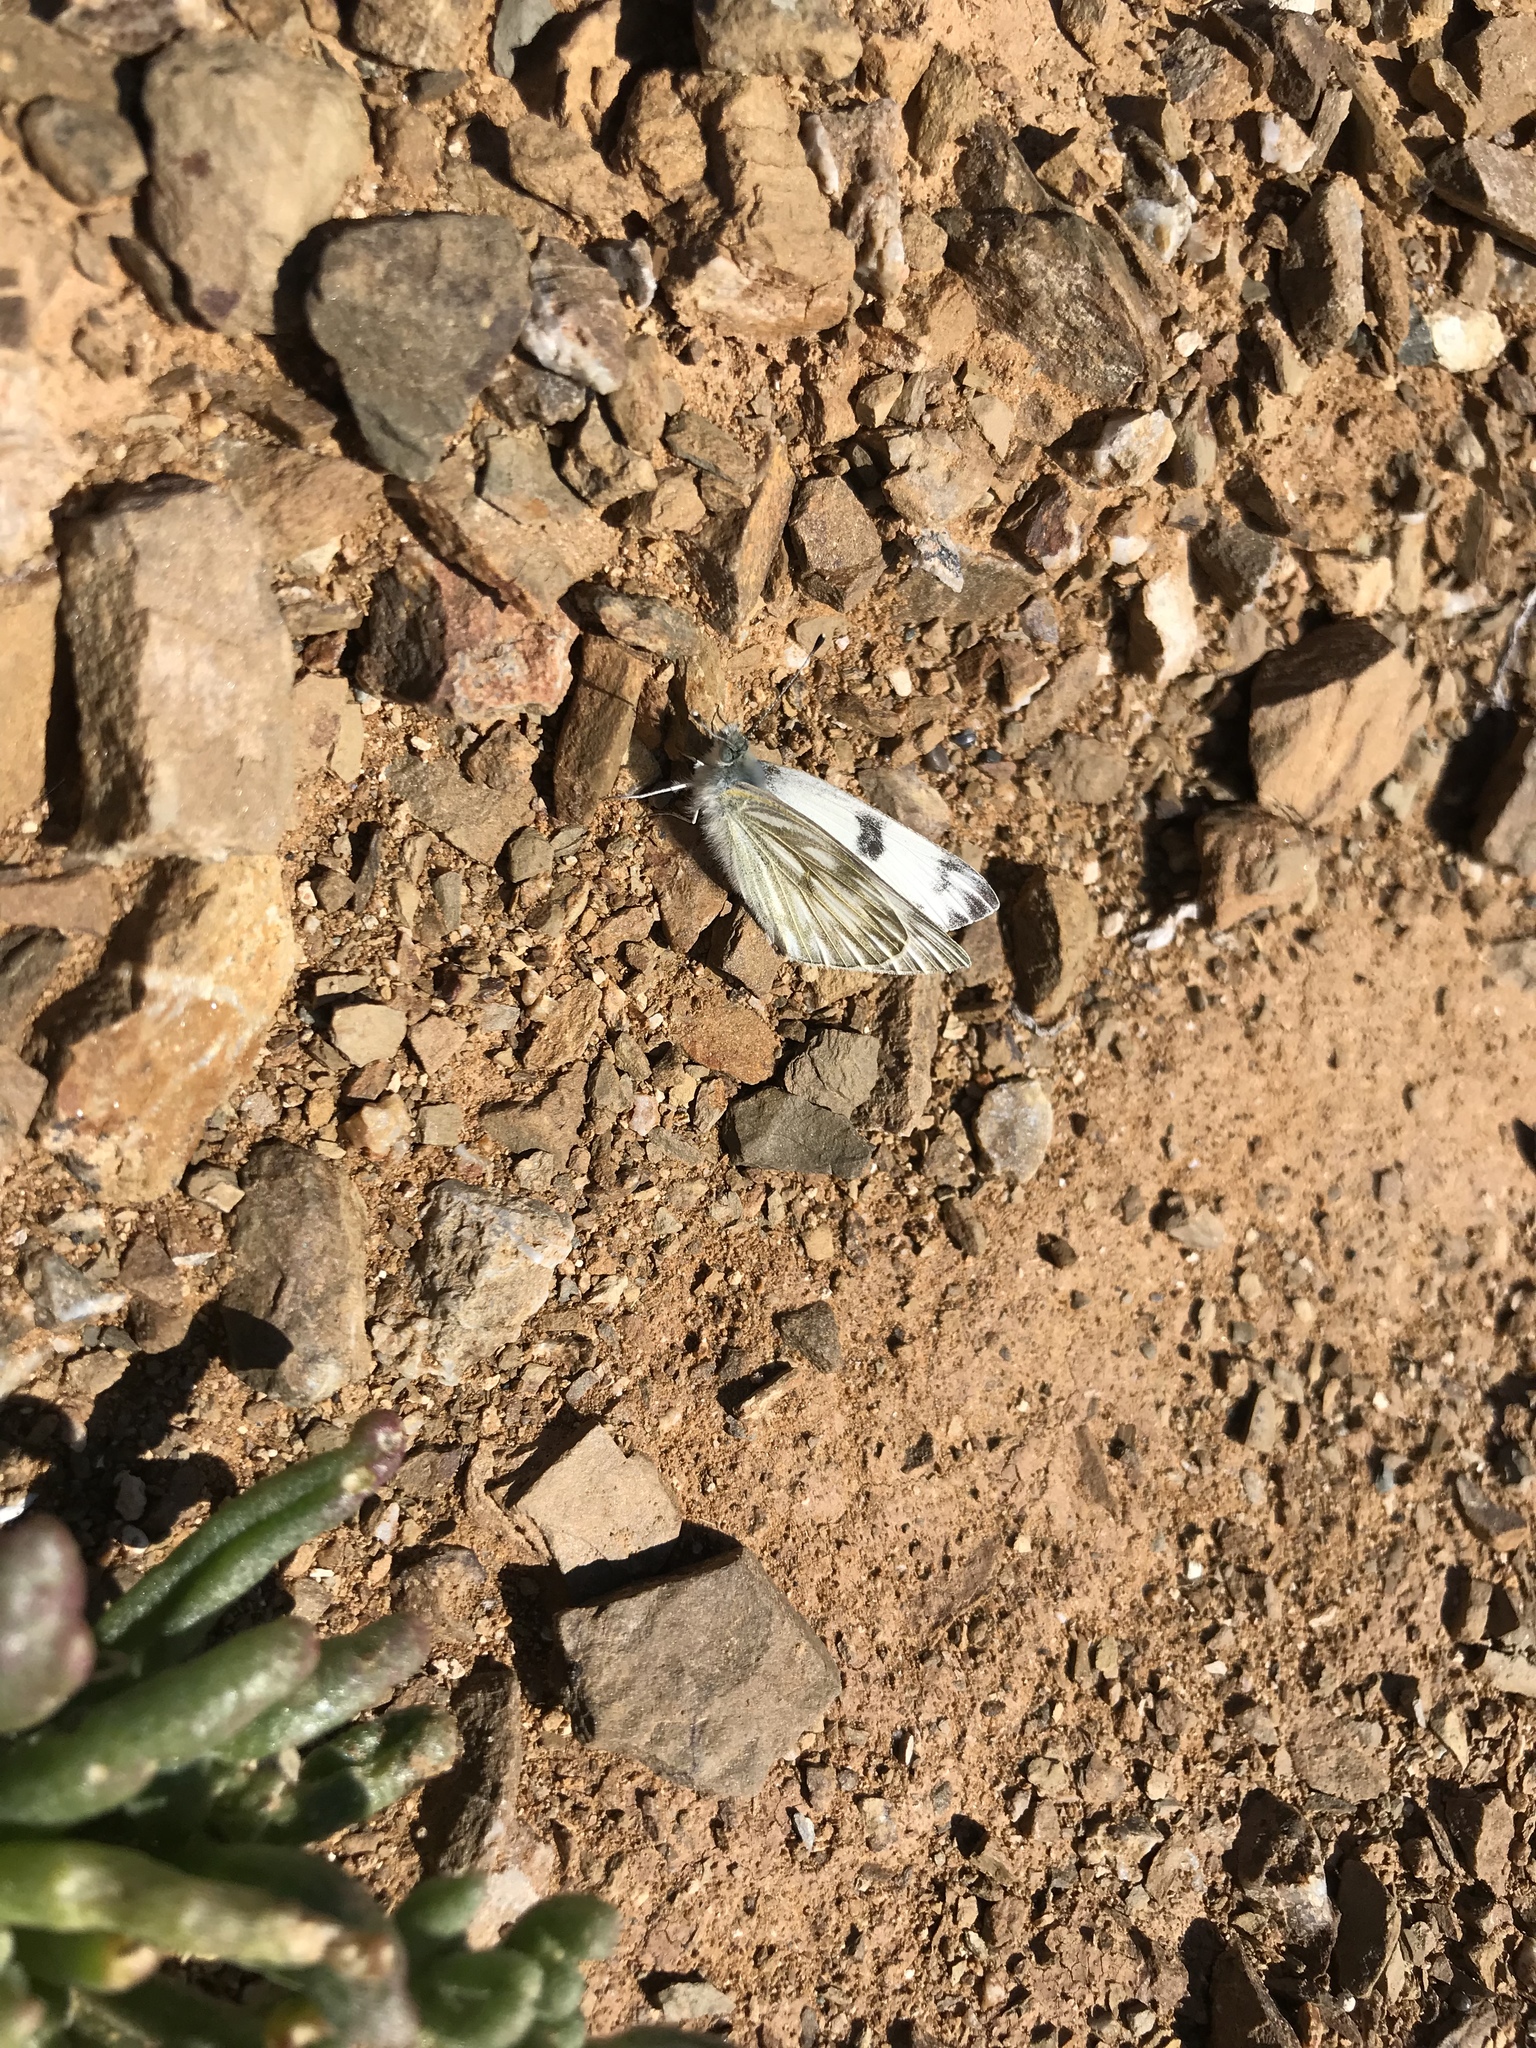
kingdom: Animalia
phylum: Arthropoda
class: Insecta
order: Lepidoptera
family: Pieridae
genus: Pontia
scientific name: Pontia protodice
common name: Checkered white
